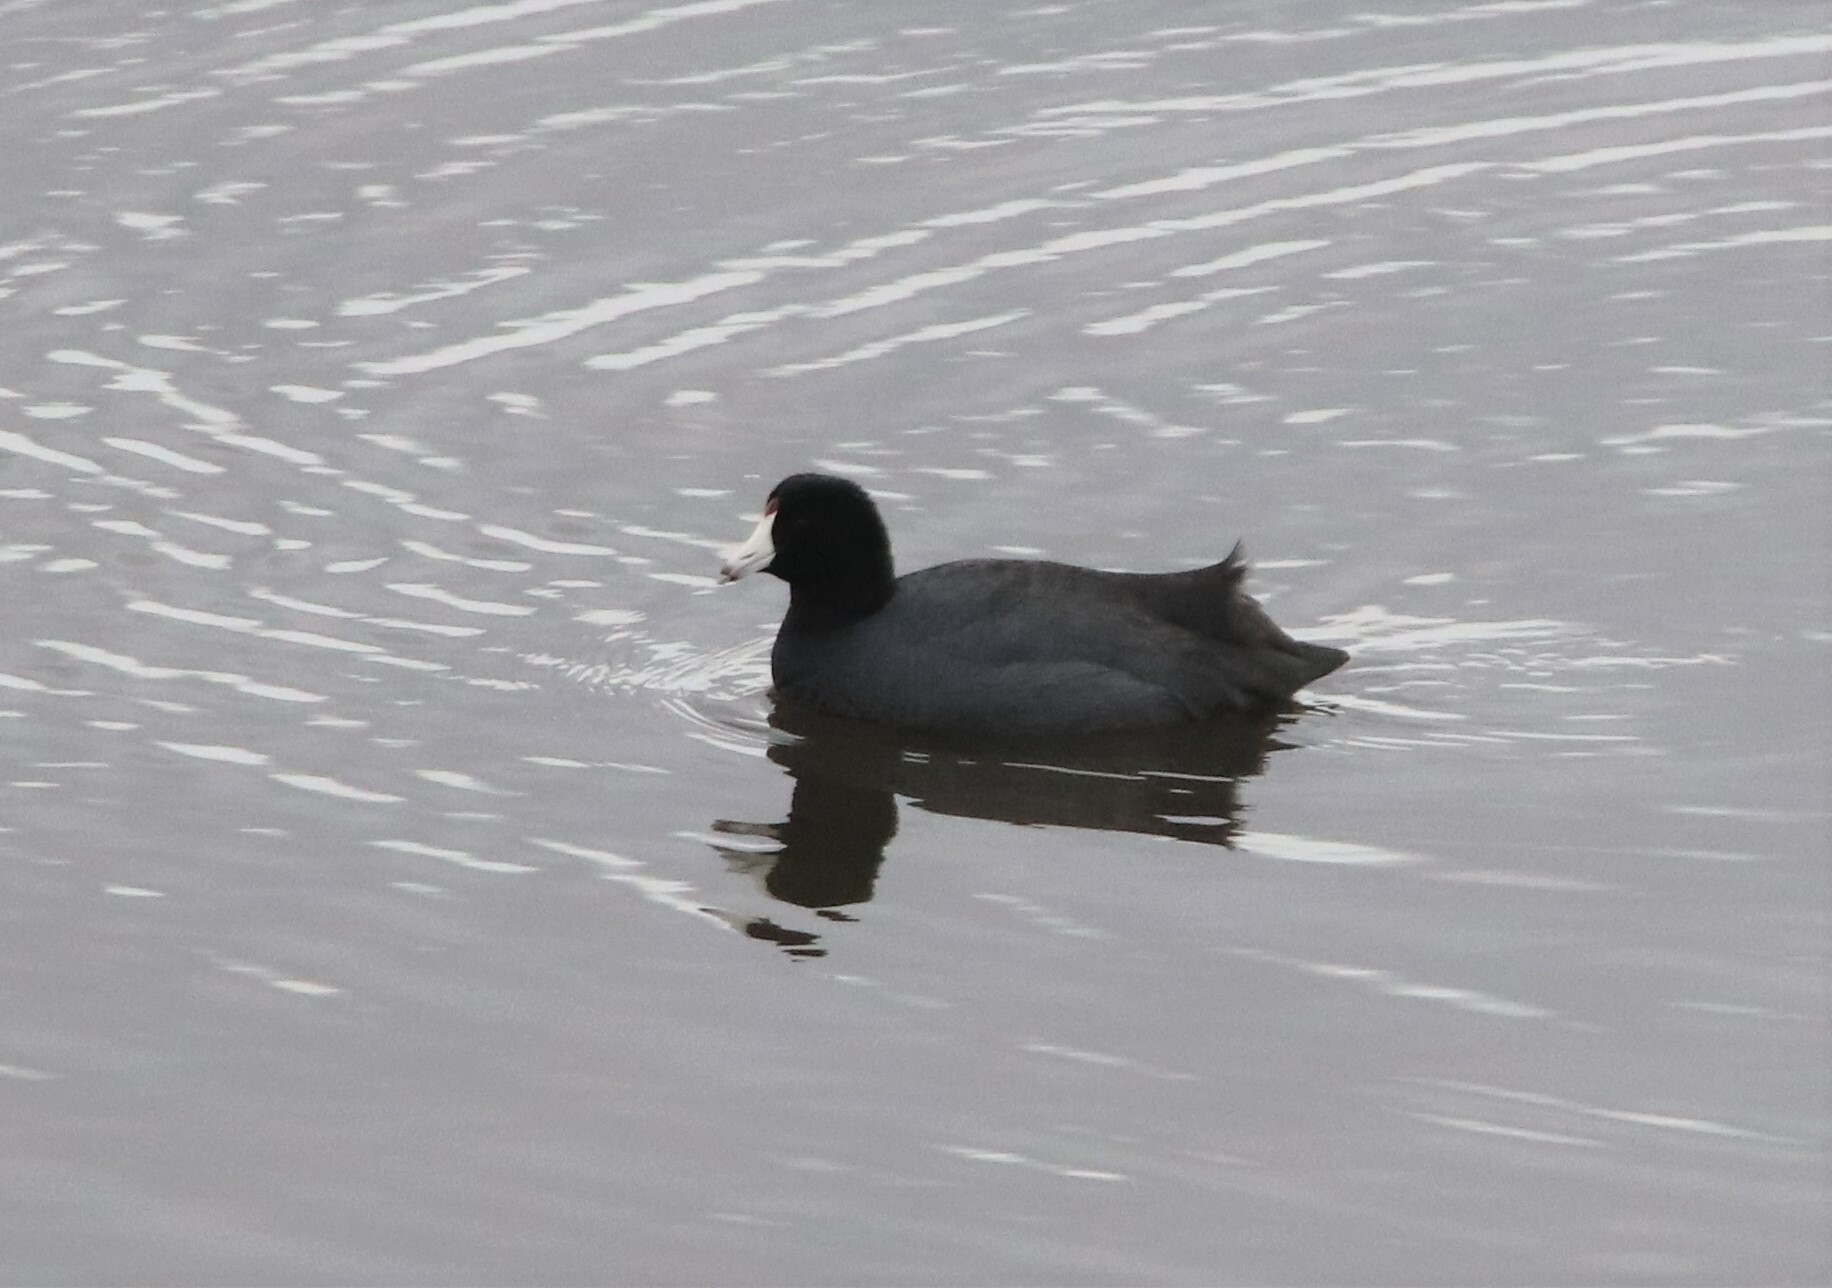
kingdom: Animalia
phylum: Chordata
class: Aves
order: Gruiformes
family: Rallidae
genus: Fulica
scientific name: Fulica americana
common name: American coot
